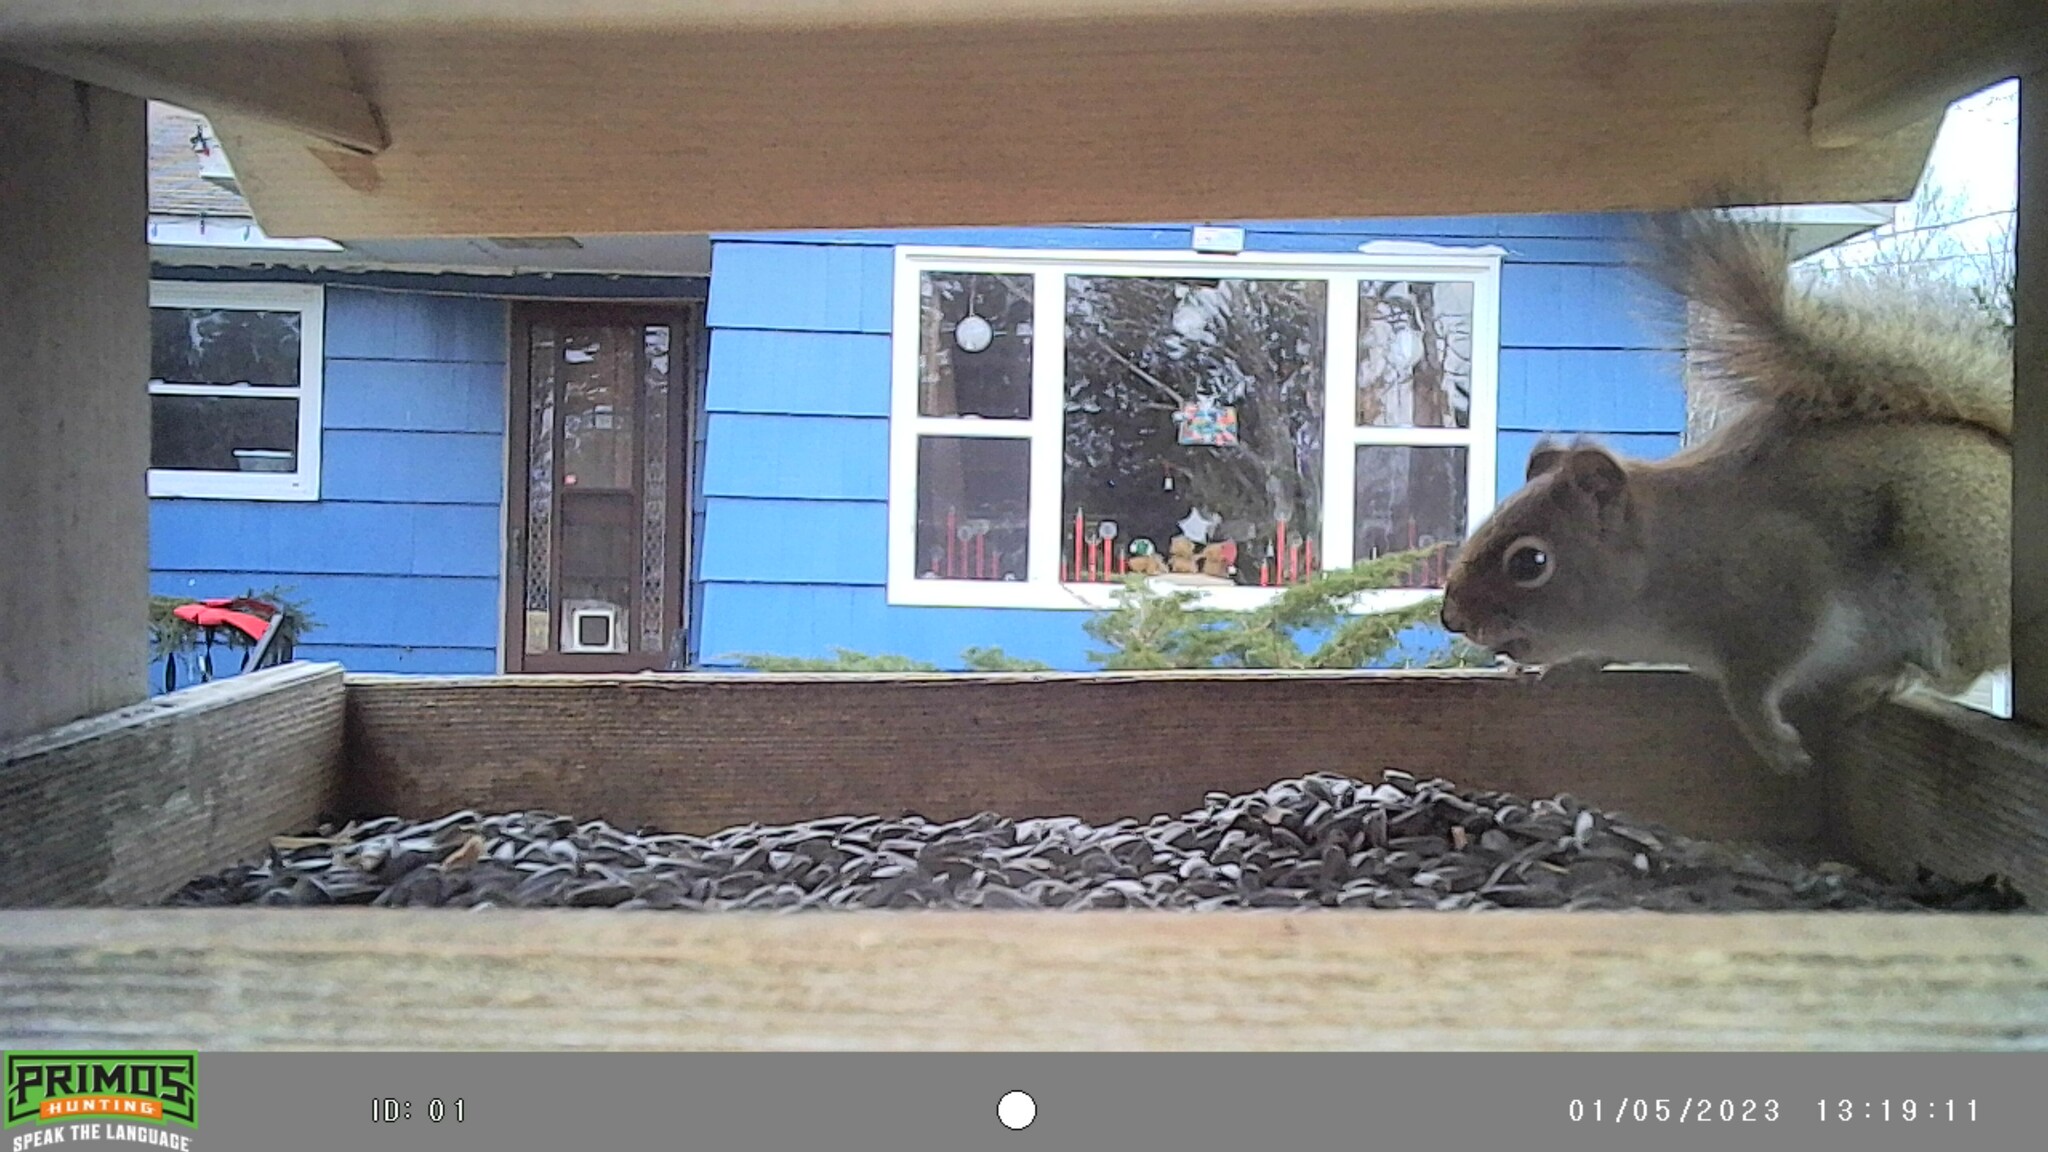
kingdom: Animalia
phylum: Chordata
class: Mammalia
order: Rodentia
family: Sciuridae
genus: Tamiasciurus
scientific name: Tamiasciurus hudsonicus
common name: Red squirrel
